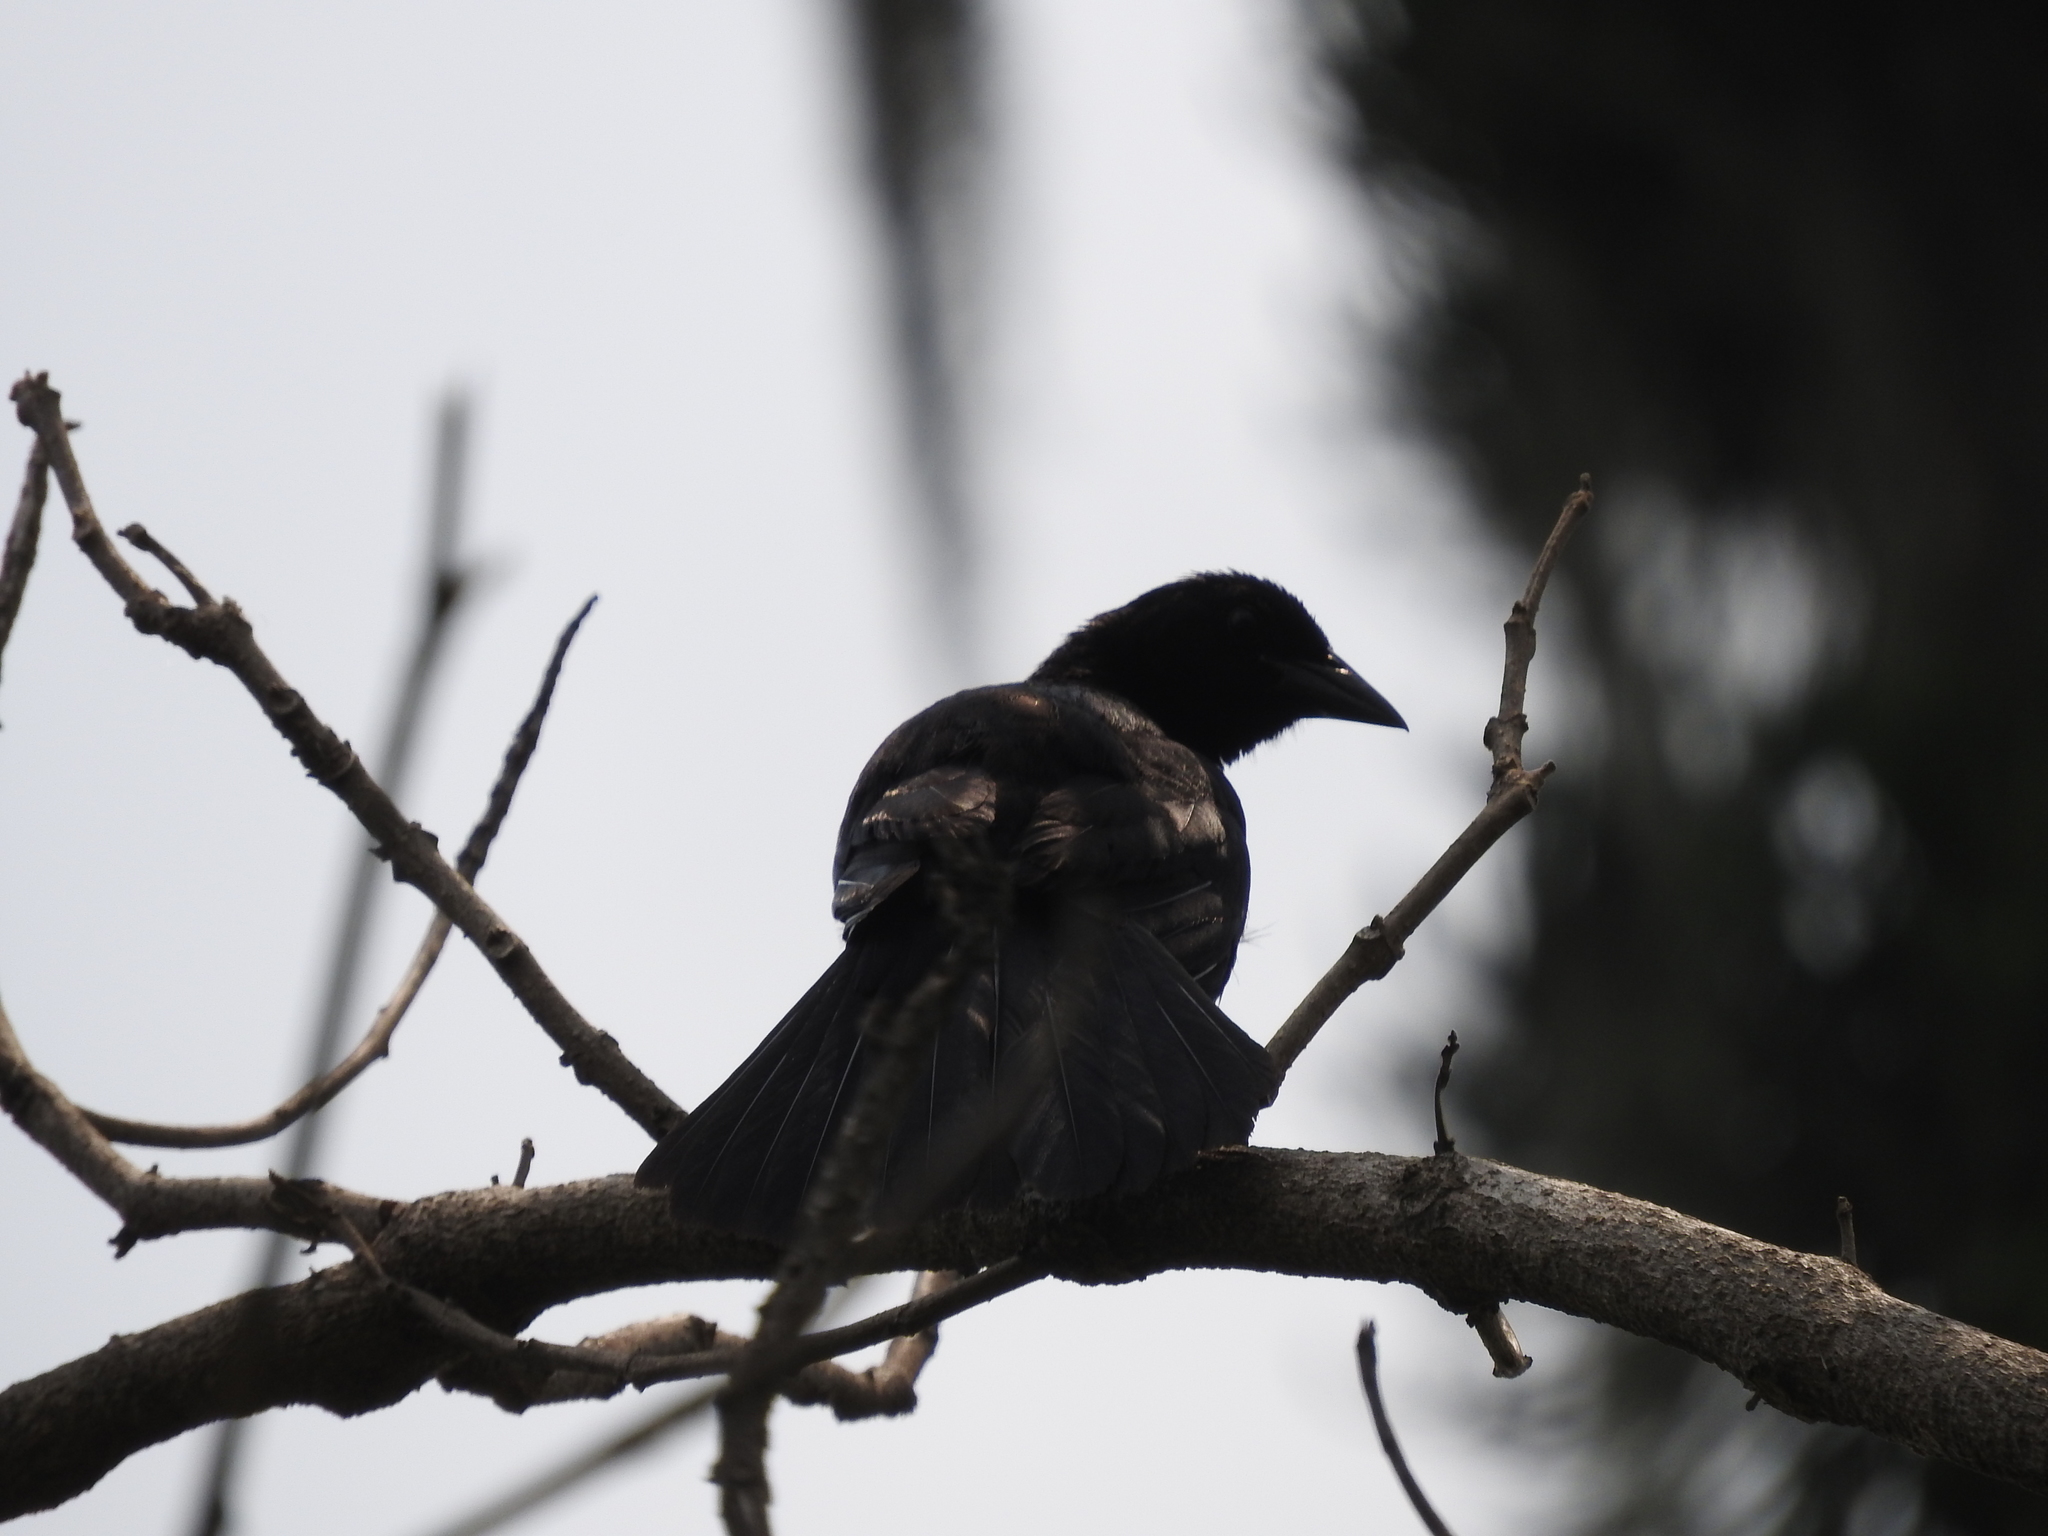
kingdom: Animalia
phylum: Chordata
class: Aves
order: Passeriformes
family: Icteridae
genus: Dives
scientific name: Dives dives
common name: Melodious blackbird
